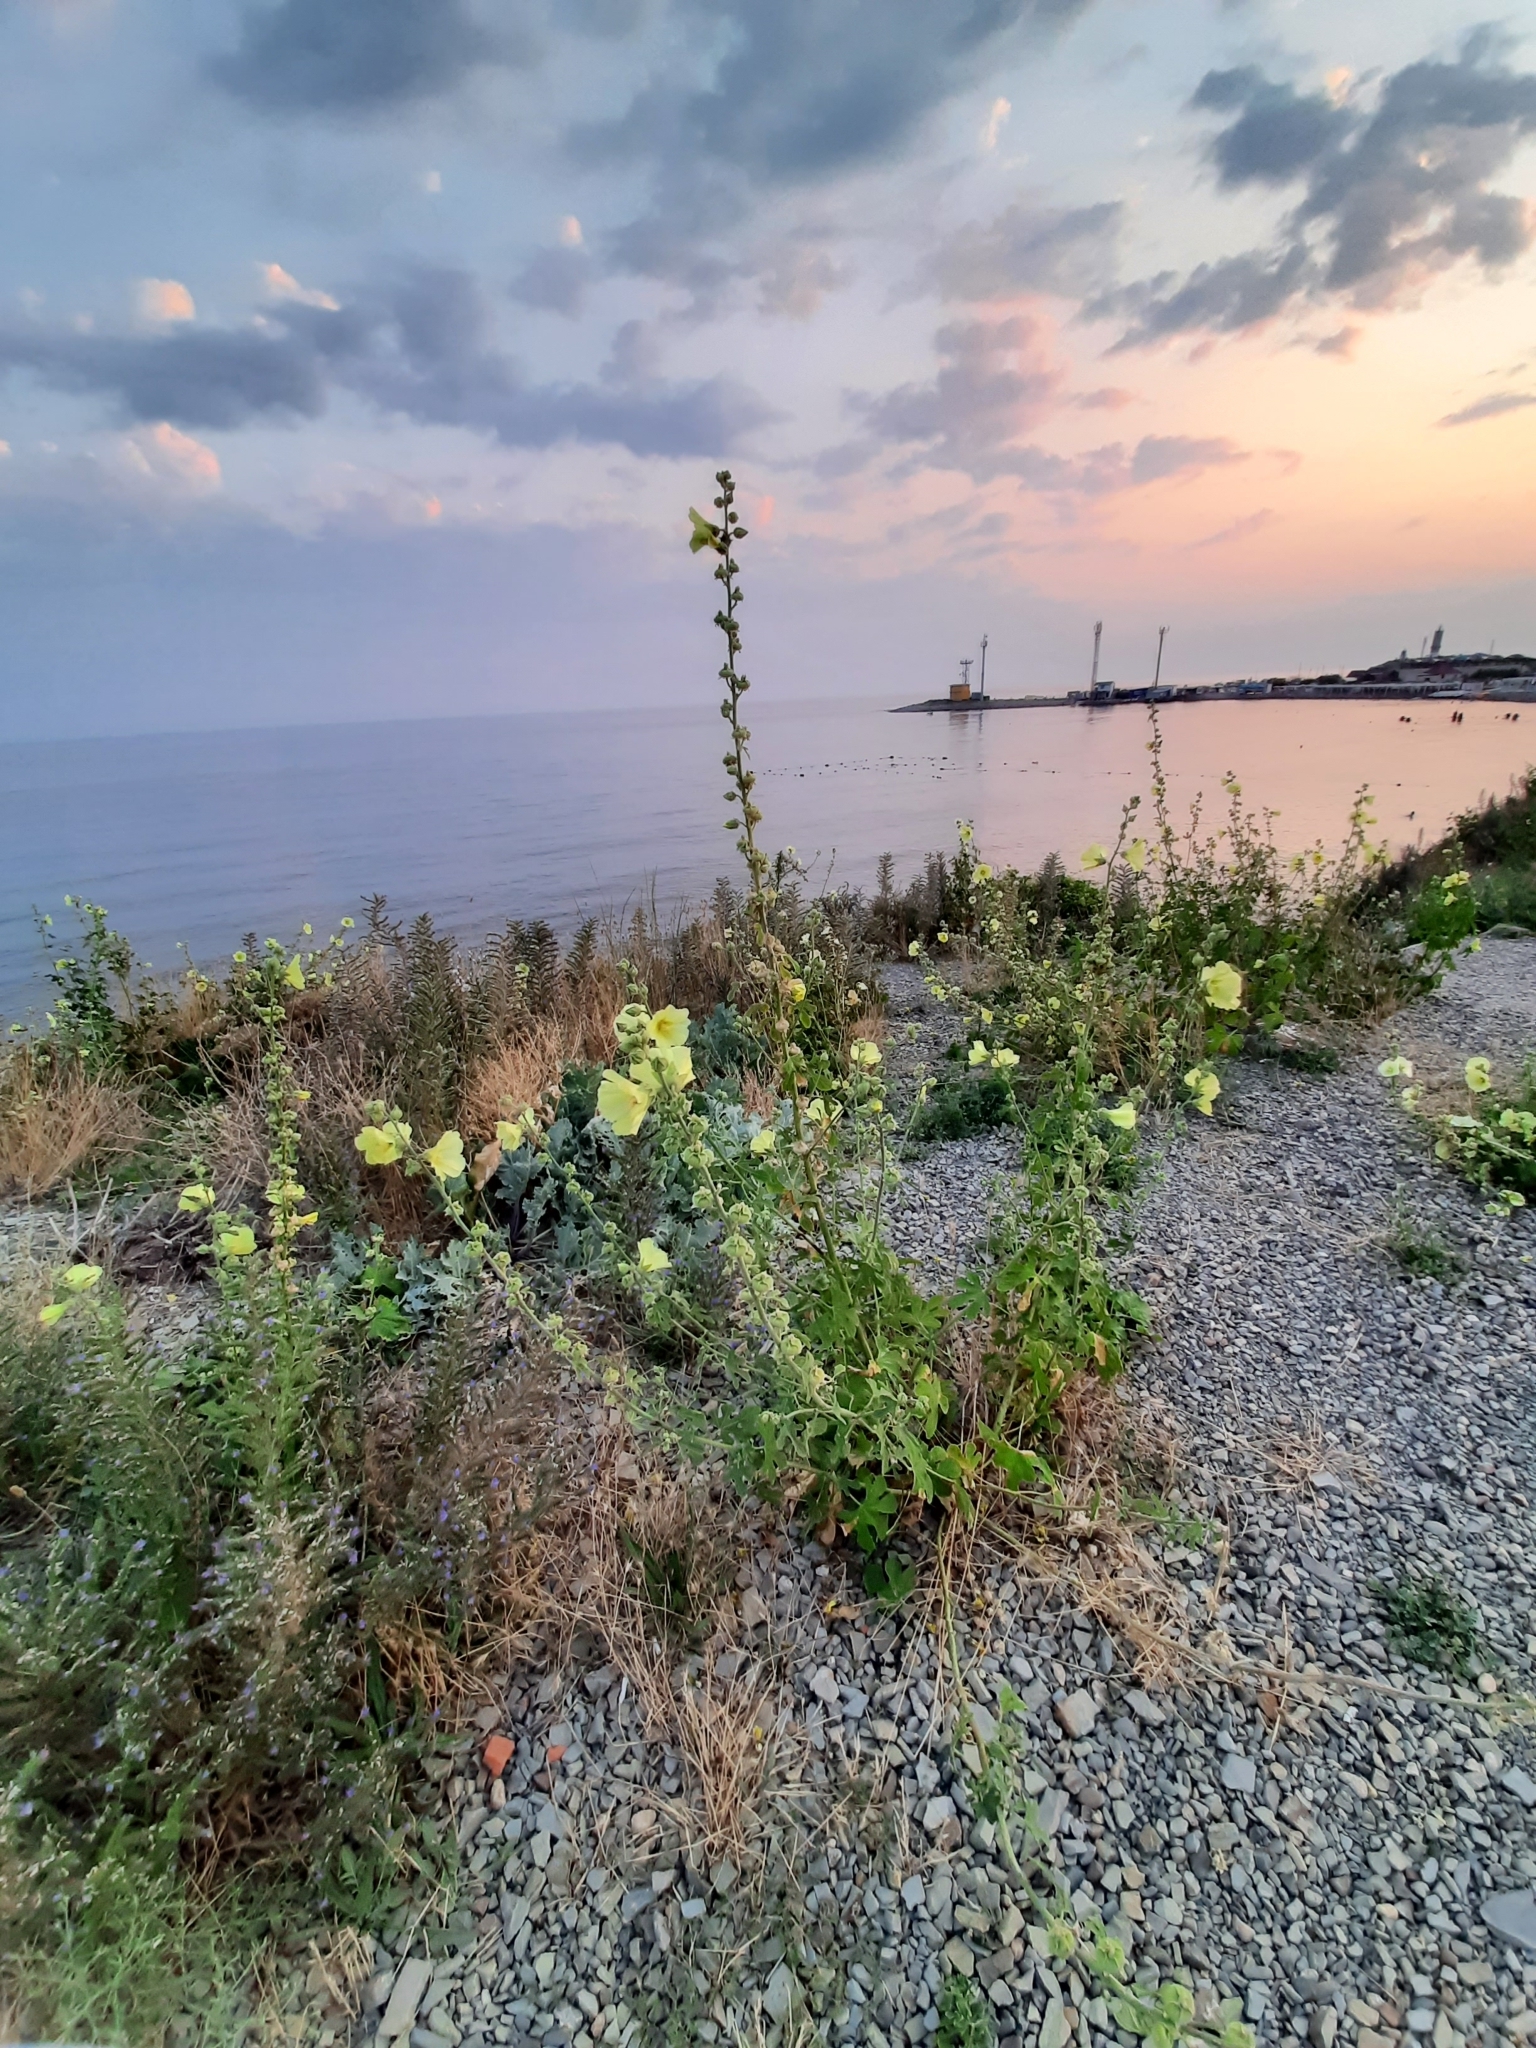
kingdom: Plantae
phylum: Tracheophyta
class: Magnoliopsida
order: Malvales
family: Malvaceae
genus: Alcea
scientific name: Alcea rugosa
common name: Russian hollyhock
